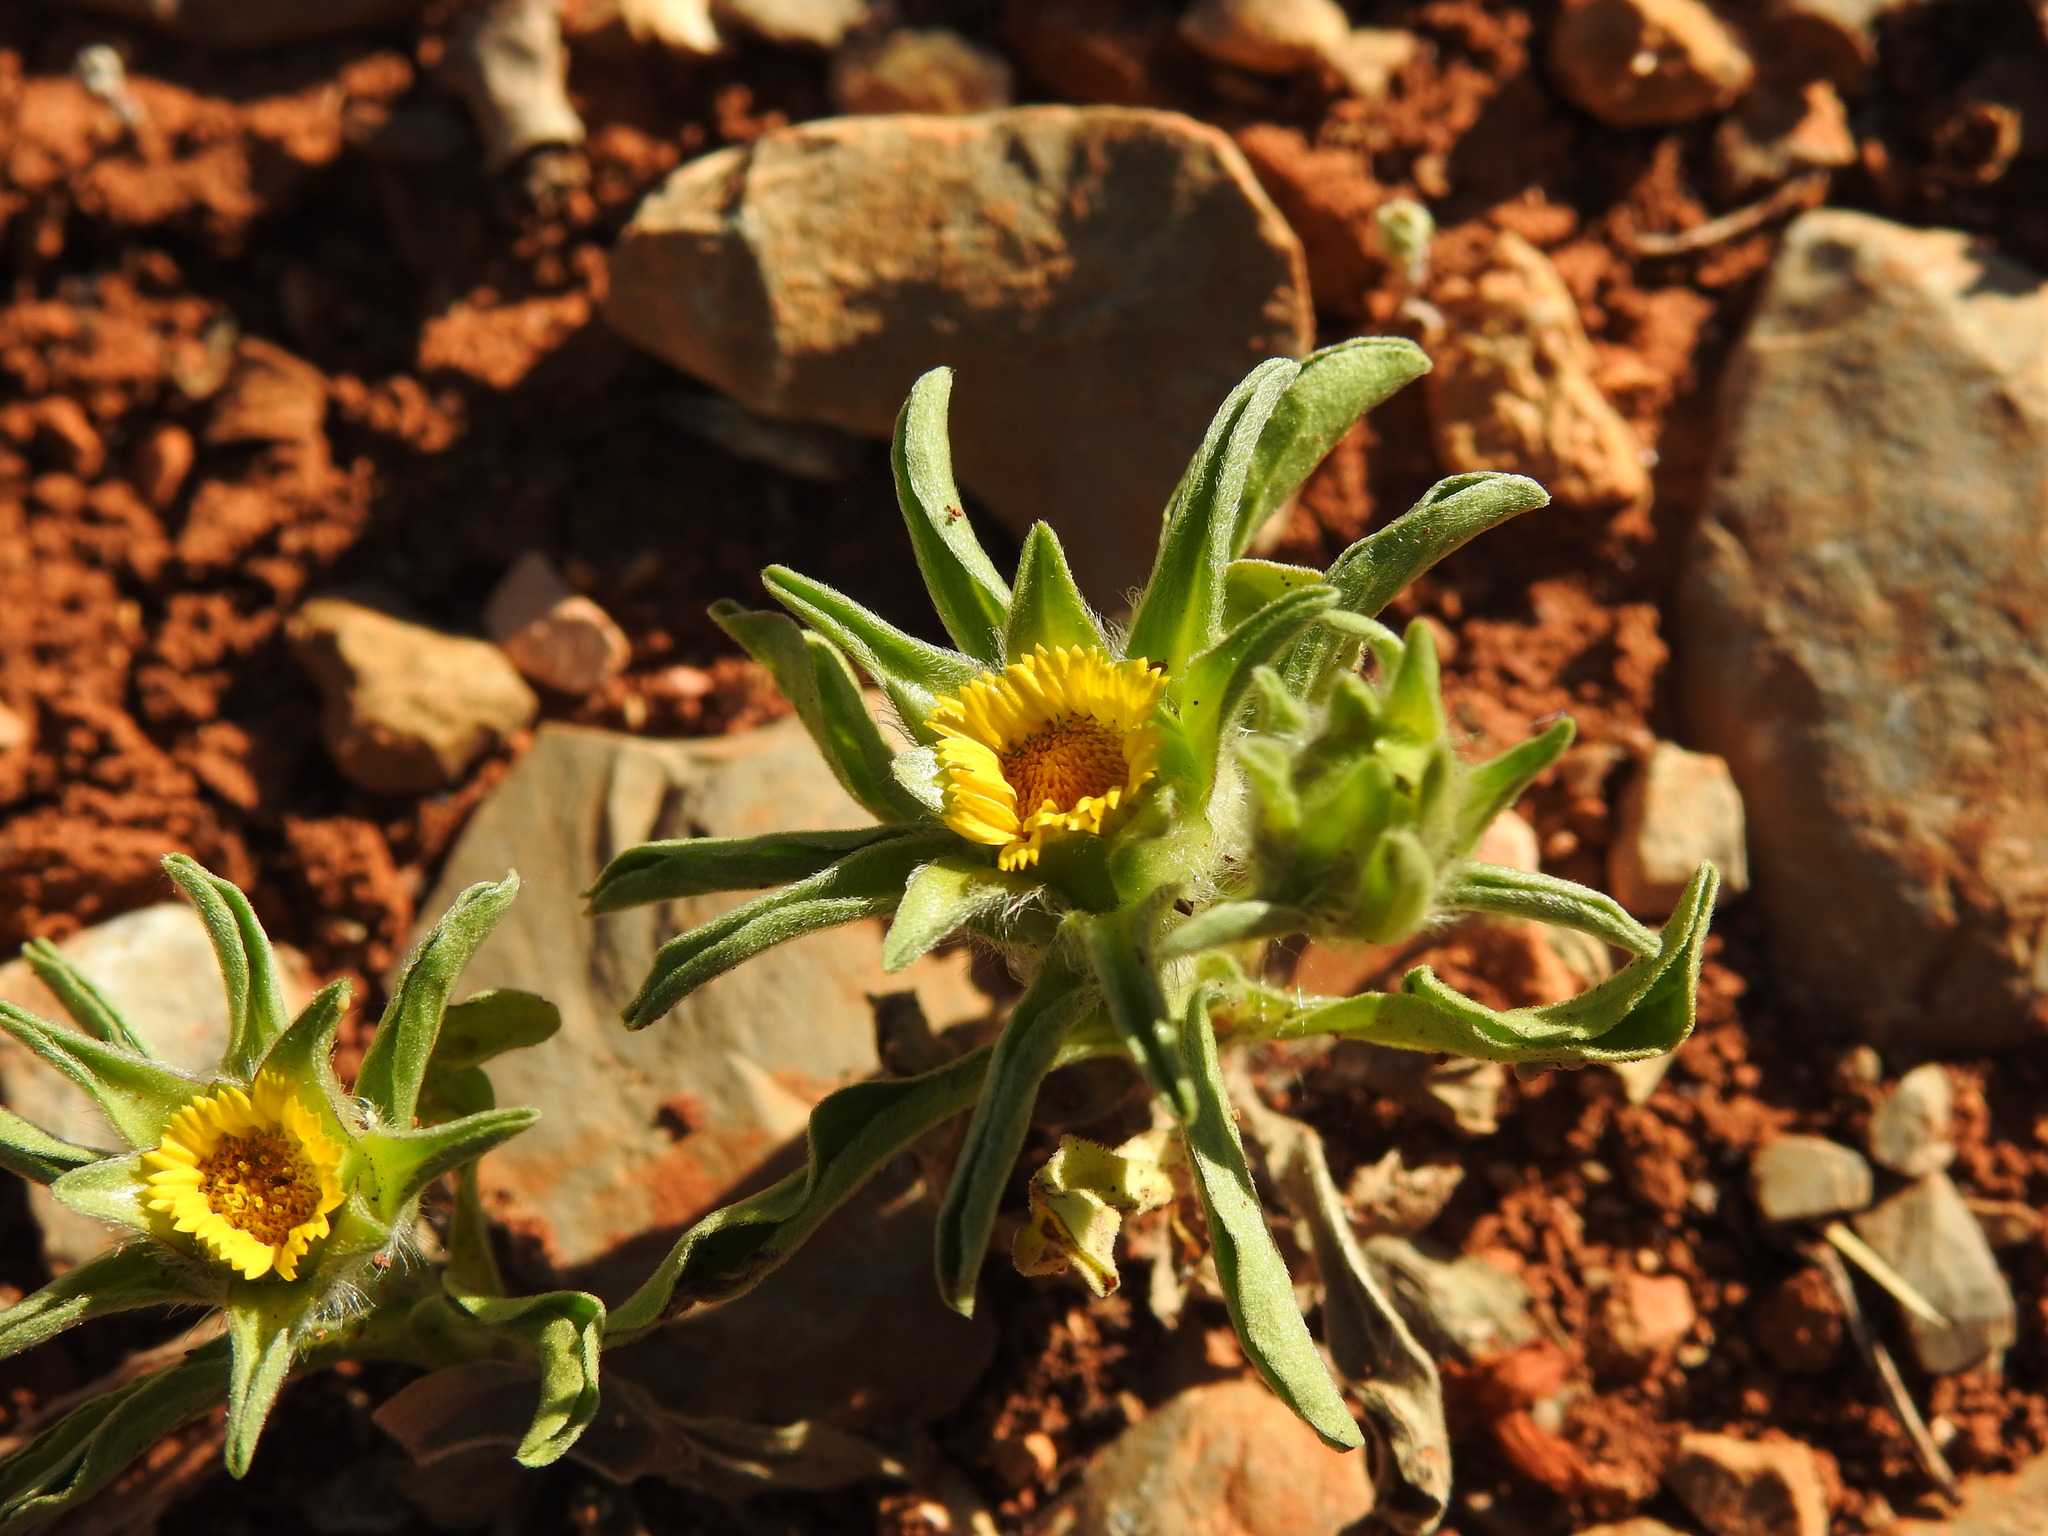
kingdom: Plantae
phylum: Tracheophyta
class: Magnoliopsida
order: Asterales
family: Asteraceae
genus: Asteriscus
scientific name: Asteriscus aquaticus
